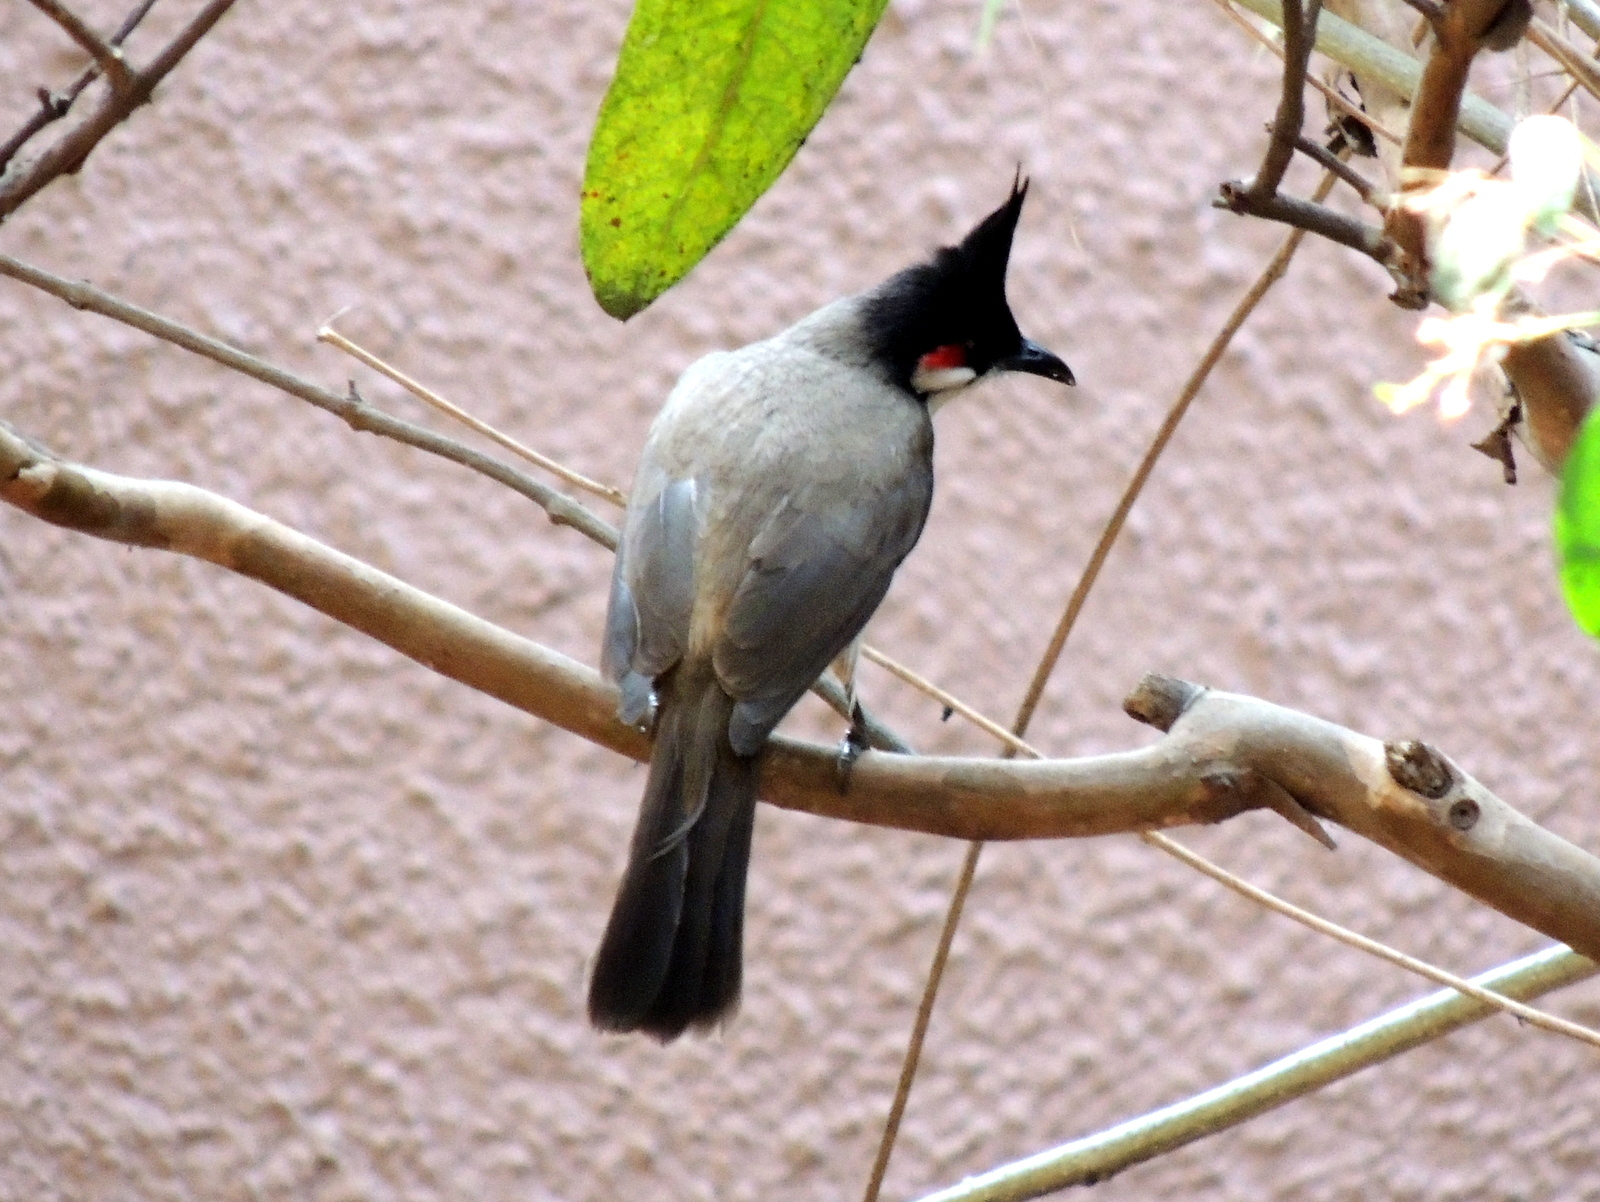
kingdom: Animalia
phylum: Chordata
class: Aves
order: Passeriformes
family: Pycnonotidae
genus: Pycnonotus
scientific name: Pycnonotus jocosus
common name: Red-whiskered bulbul
